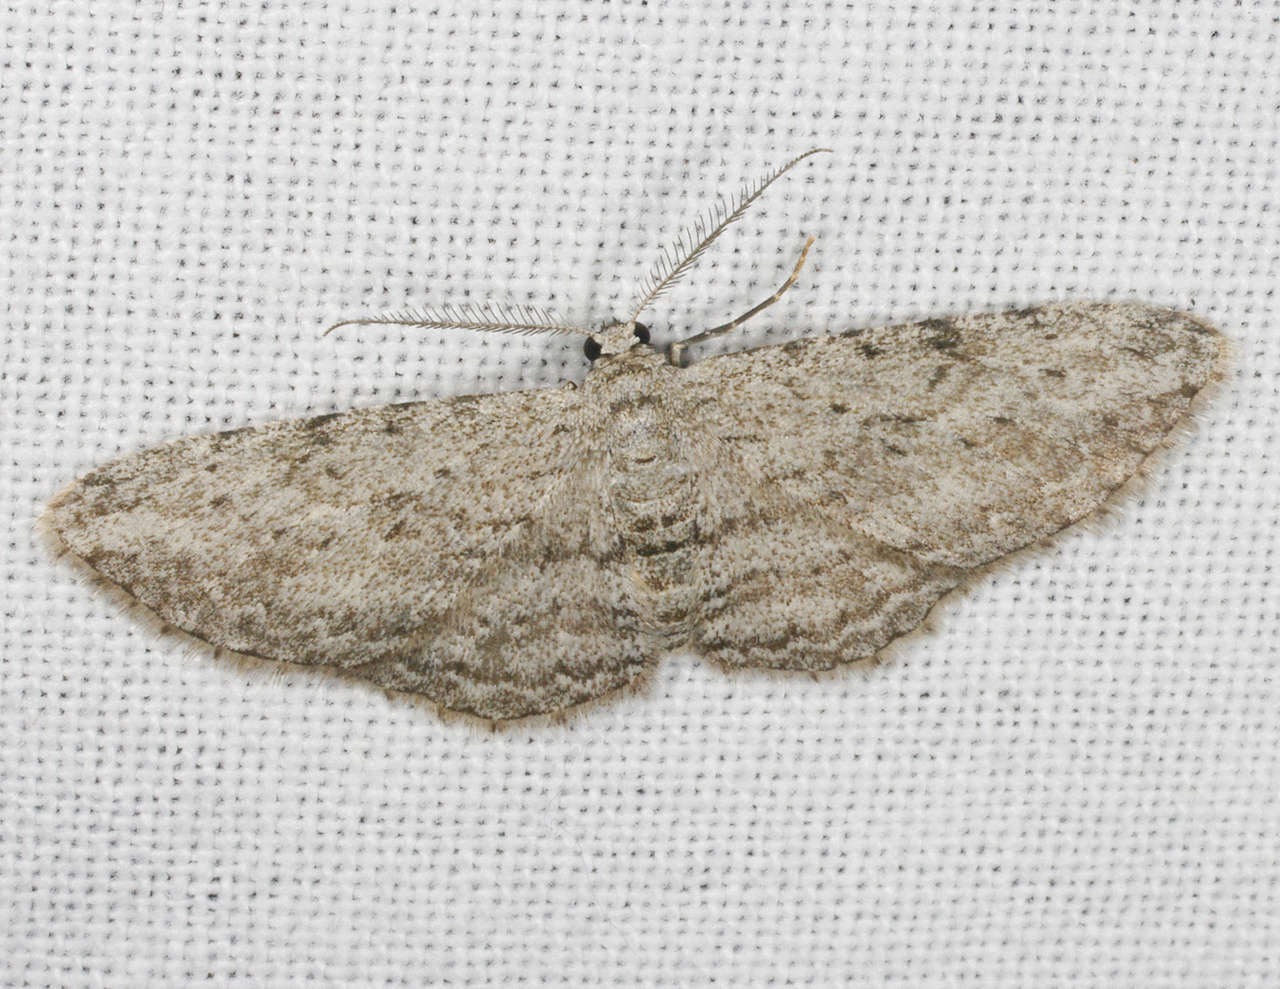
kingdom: Animalia
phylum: Arthropoda
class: Insecta
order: Lepidoptera
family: Geometridae
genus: Phelotis
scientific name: Phelotis cognata
